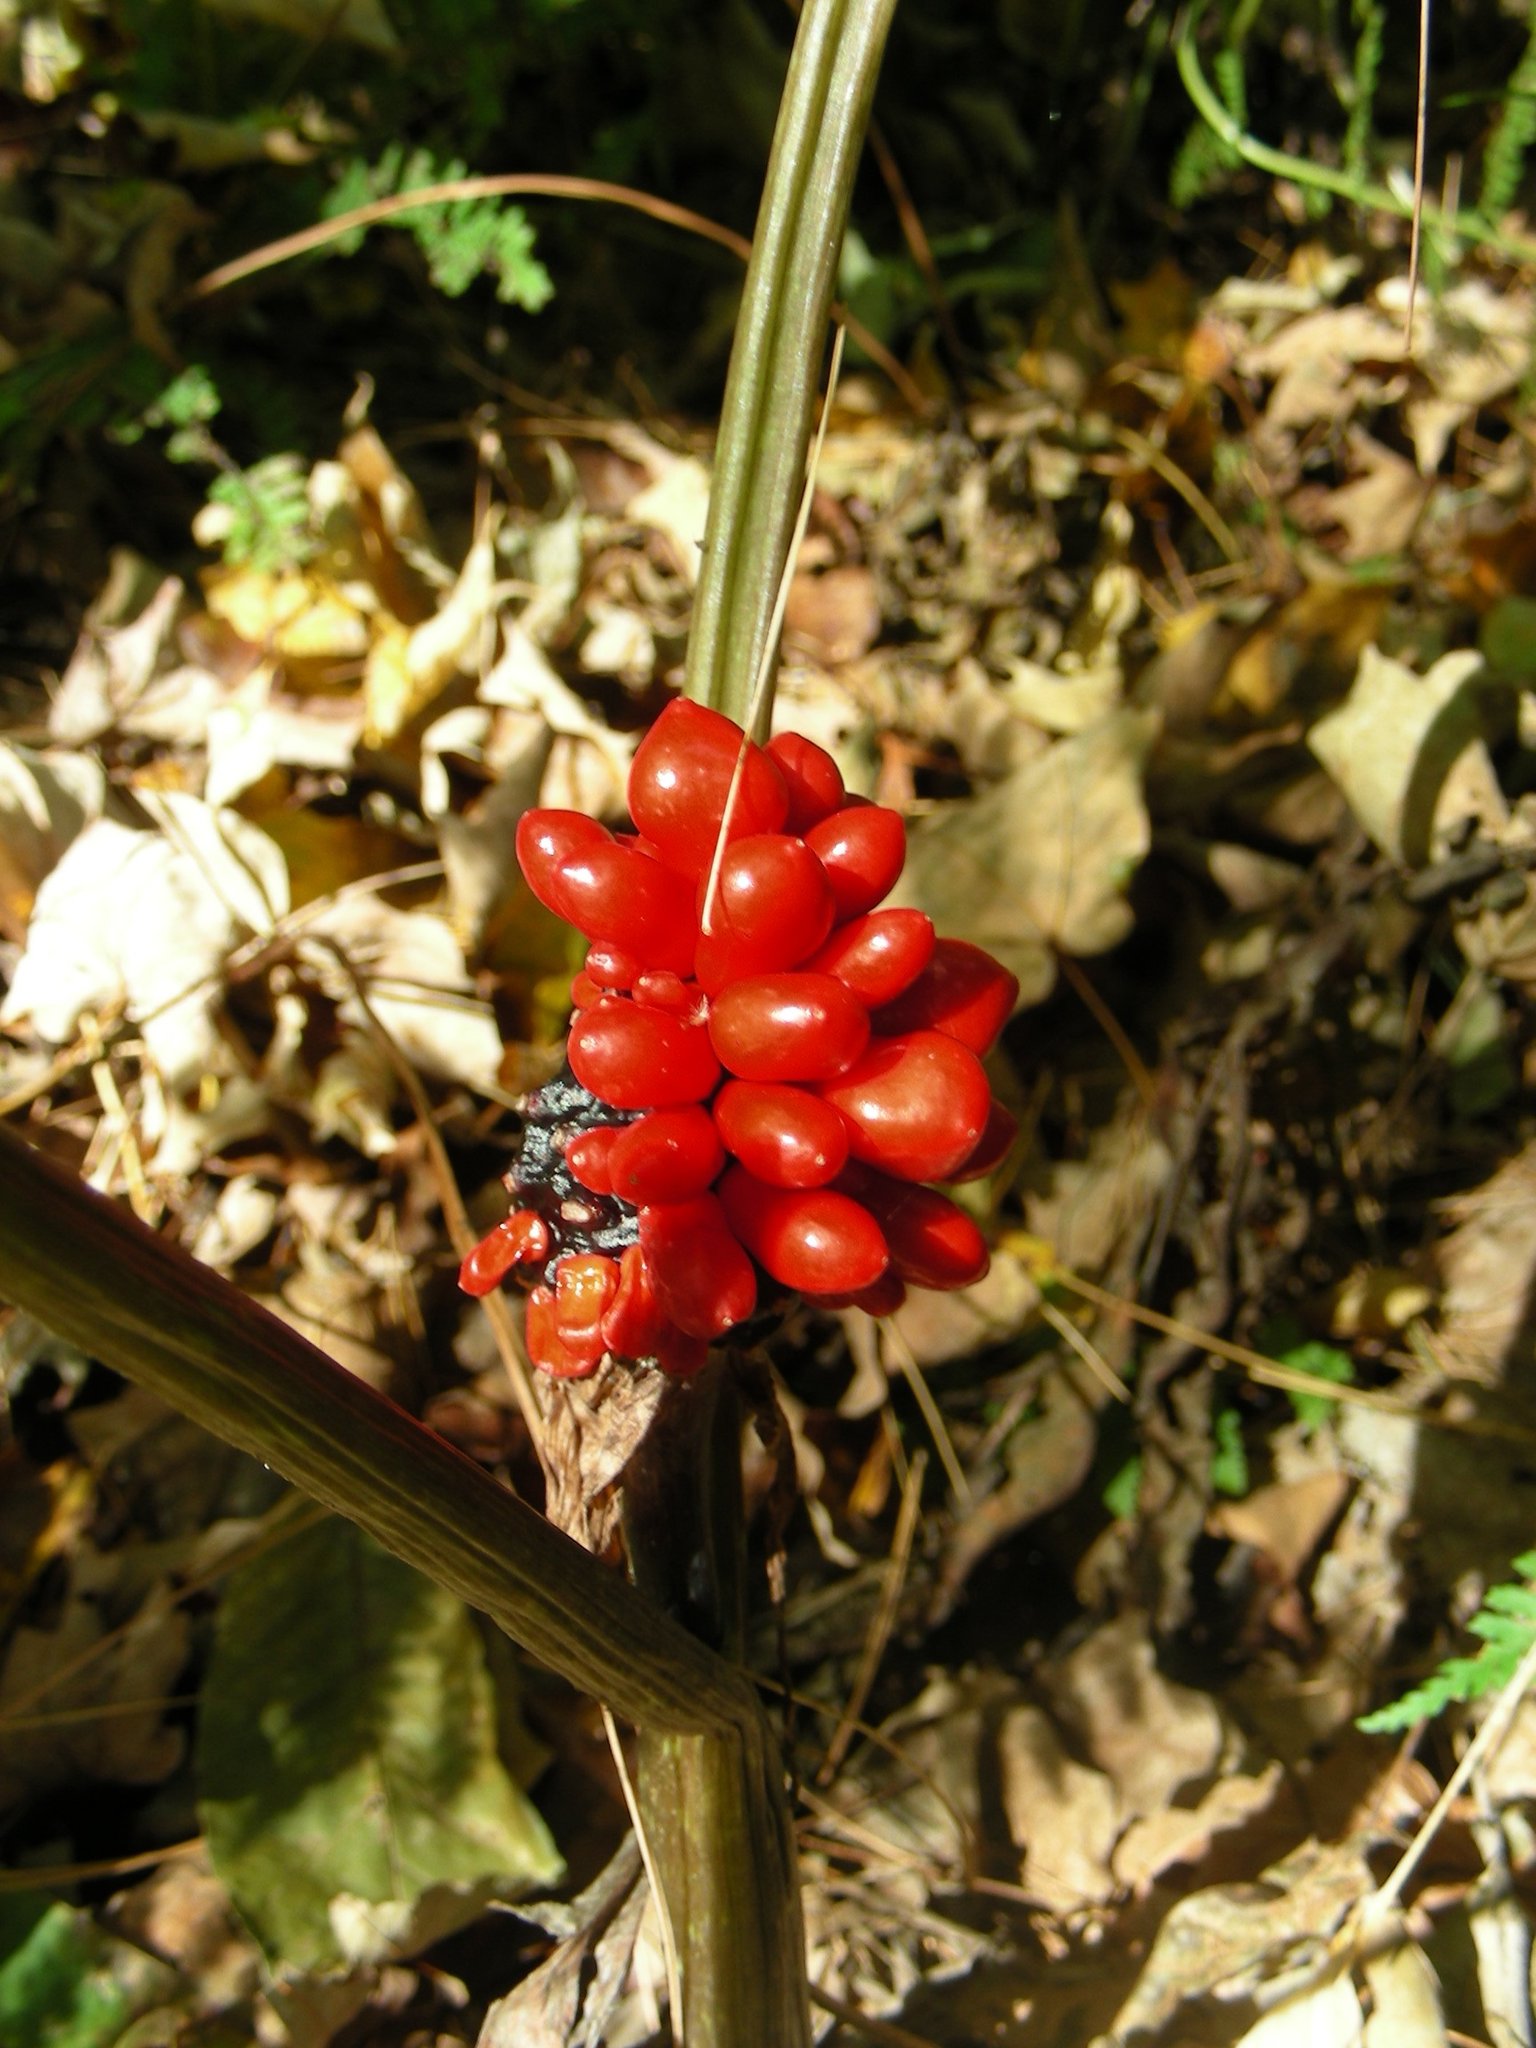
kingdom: Plantae
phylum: Tracheophyta
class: Liliopsida
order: Alismatales
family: Araceae
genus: Arisaema
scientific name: Arisaema triphyllum
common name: Jack-in-the-pulpit
